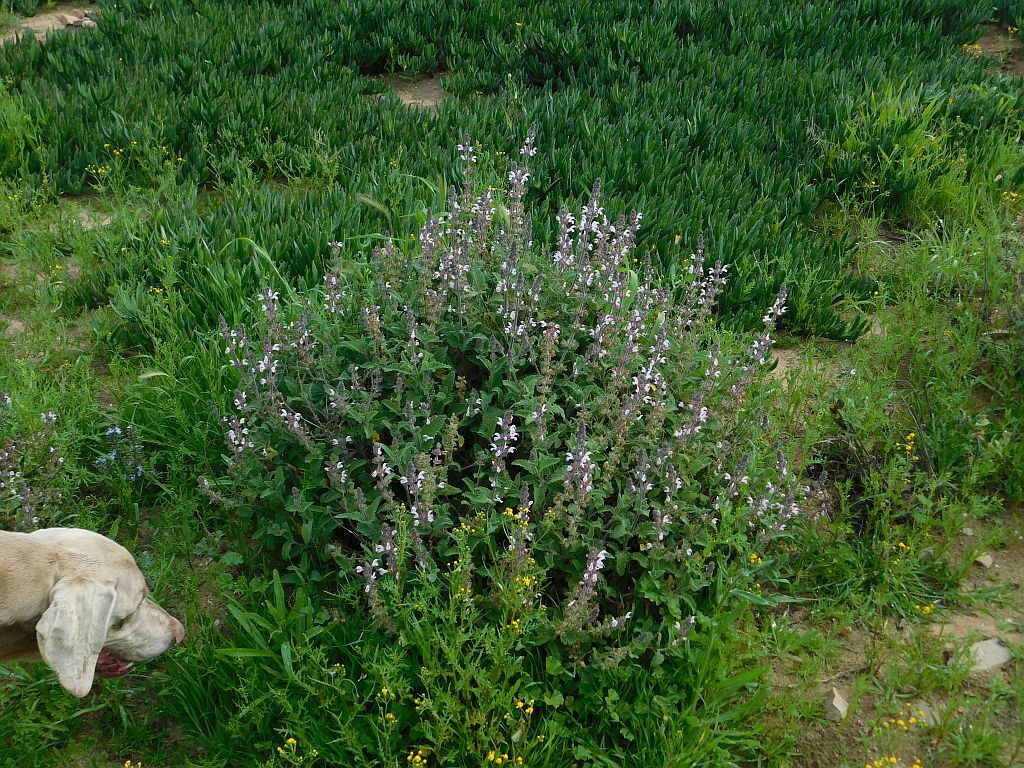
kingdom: Plantae
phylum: Tracheophyta
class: Magnoliopsida
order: Lamiales
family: Lamiaceae
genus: Salvia
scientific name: Salvia disermas
